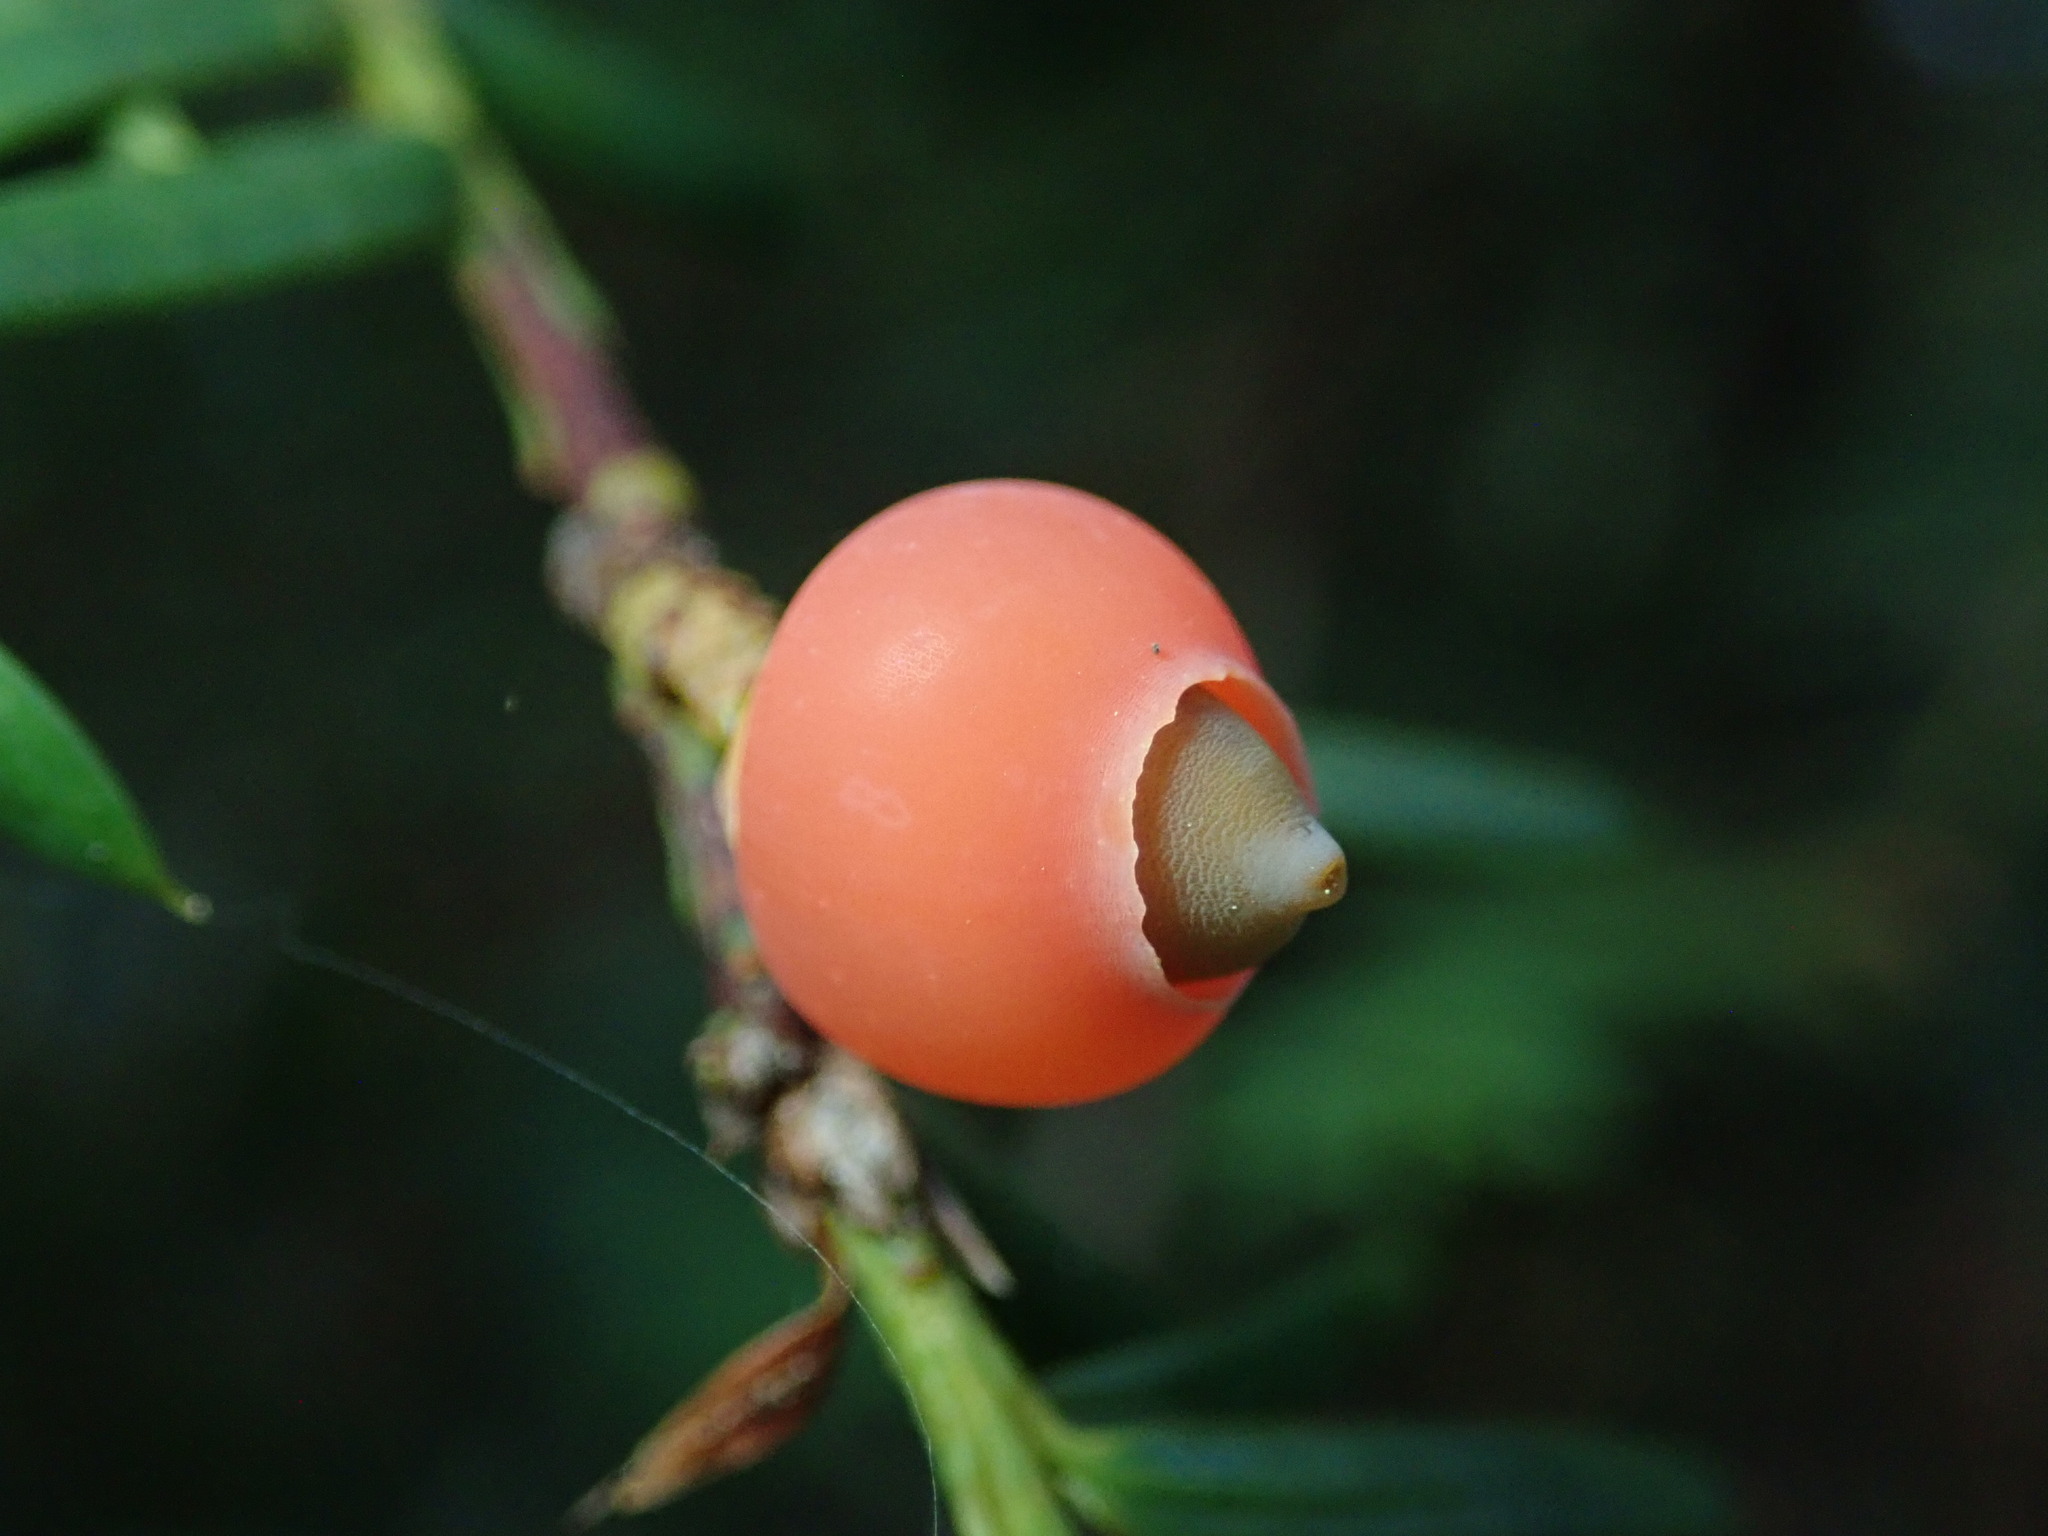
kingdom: Plantae
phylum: Tracheophyta
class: Pinopsida
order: Pinales
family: Taxaceae
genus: Taxus
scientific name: Taxus brevifolia
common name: Pacific yew
